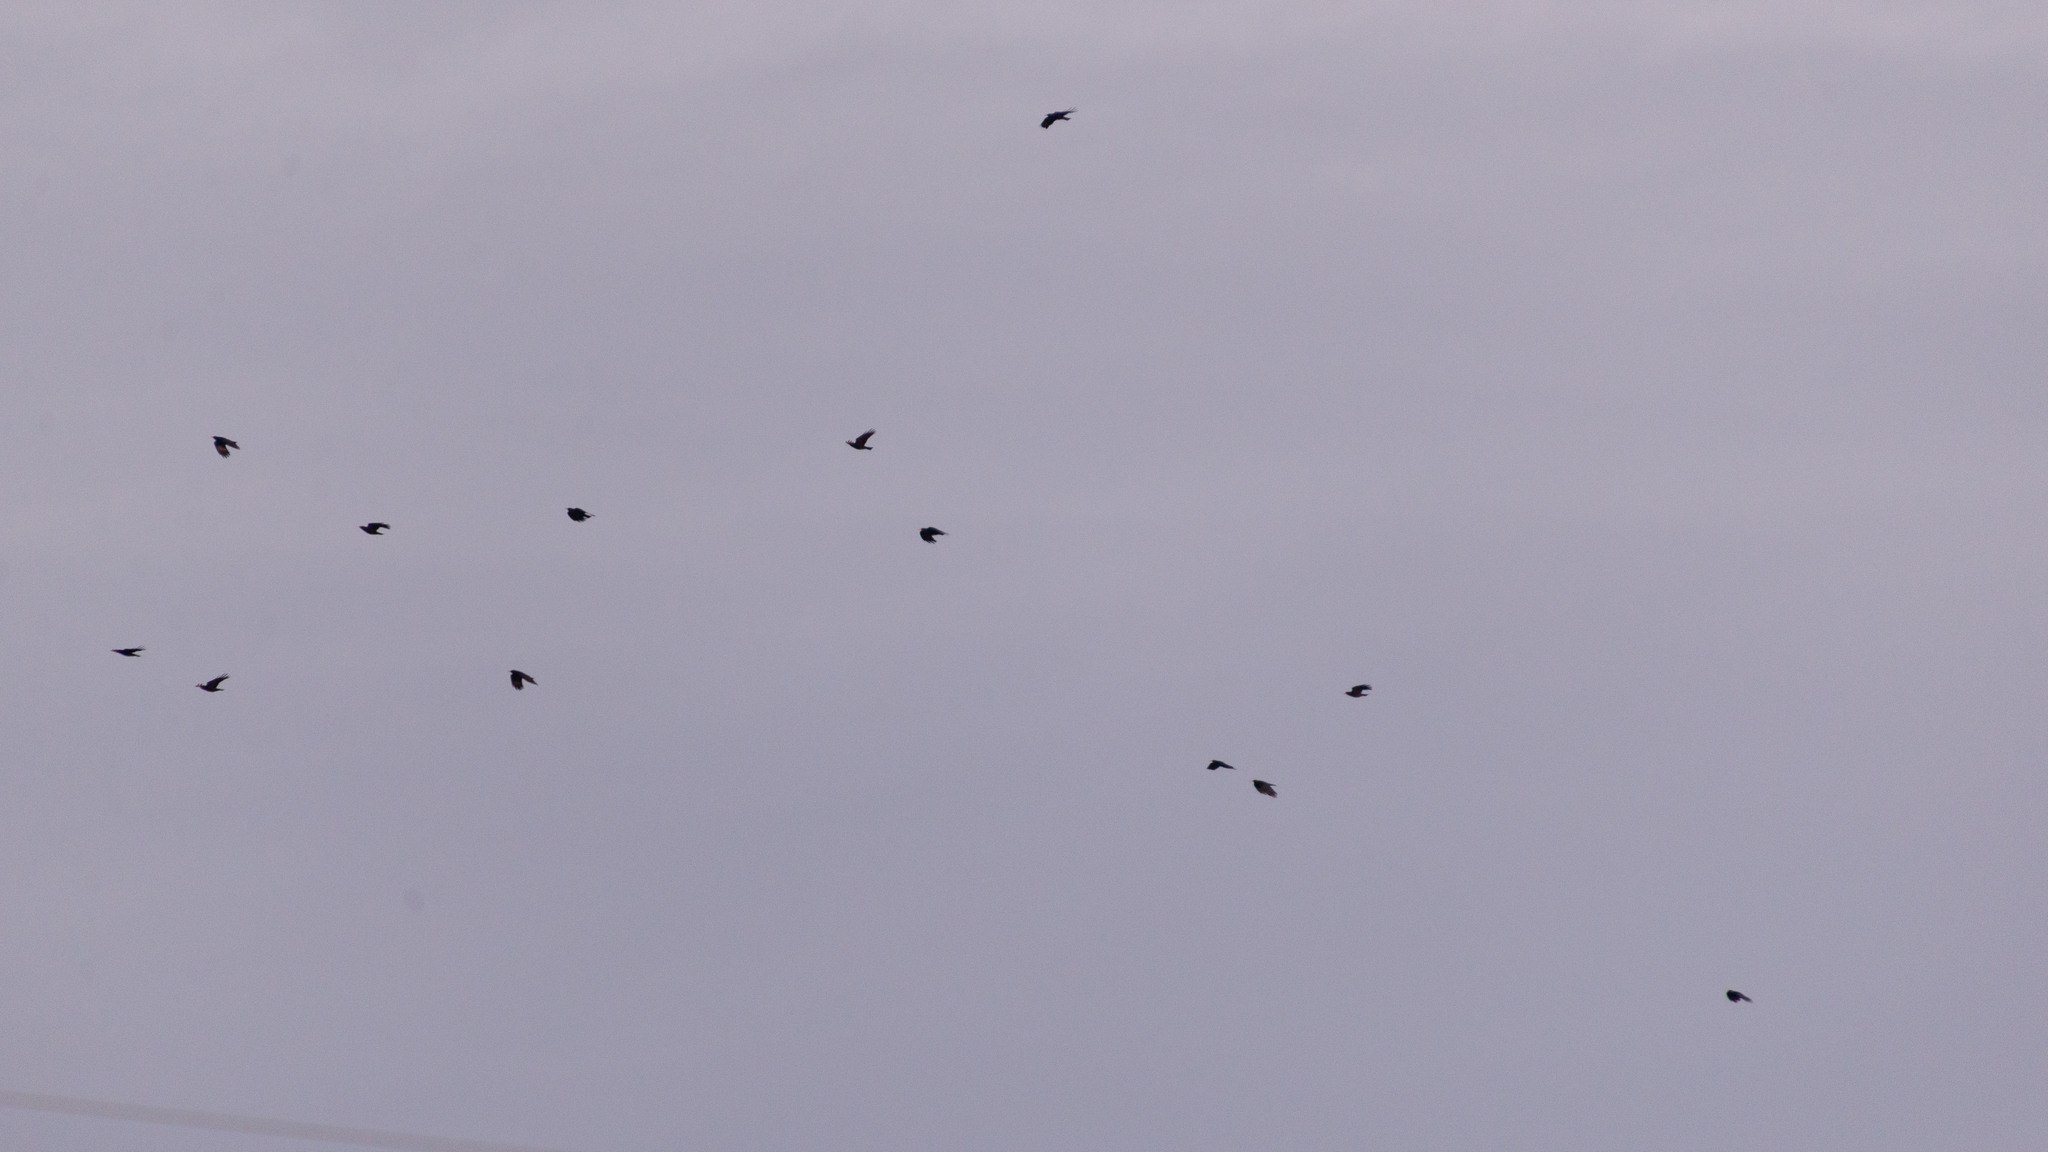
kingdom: Animalia
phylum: Chordata
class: Aves
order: Passeriformes
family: Corvidae
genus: Pyrrhocorax
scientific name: Pyrrhocorax pyrrhocorax
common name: Red-billed chough
